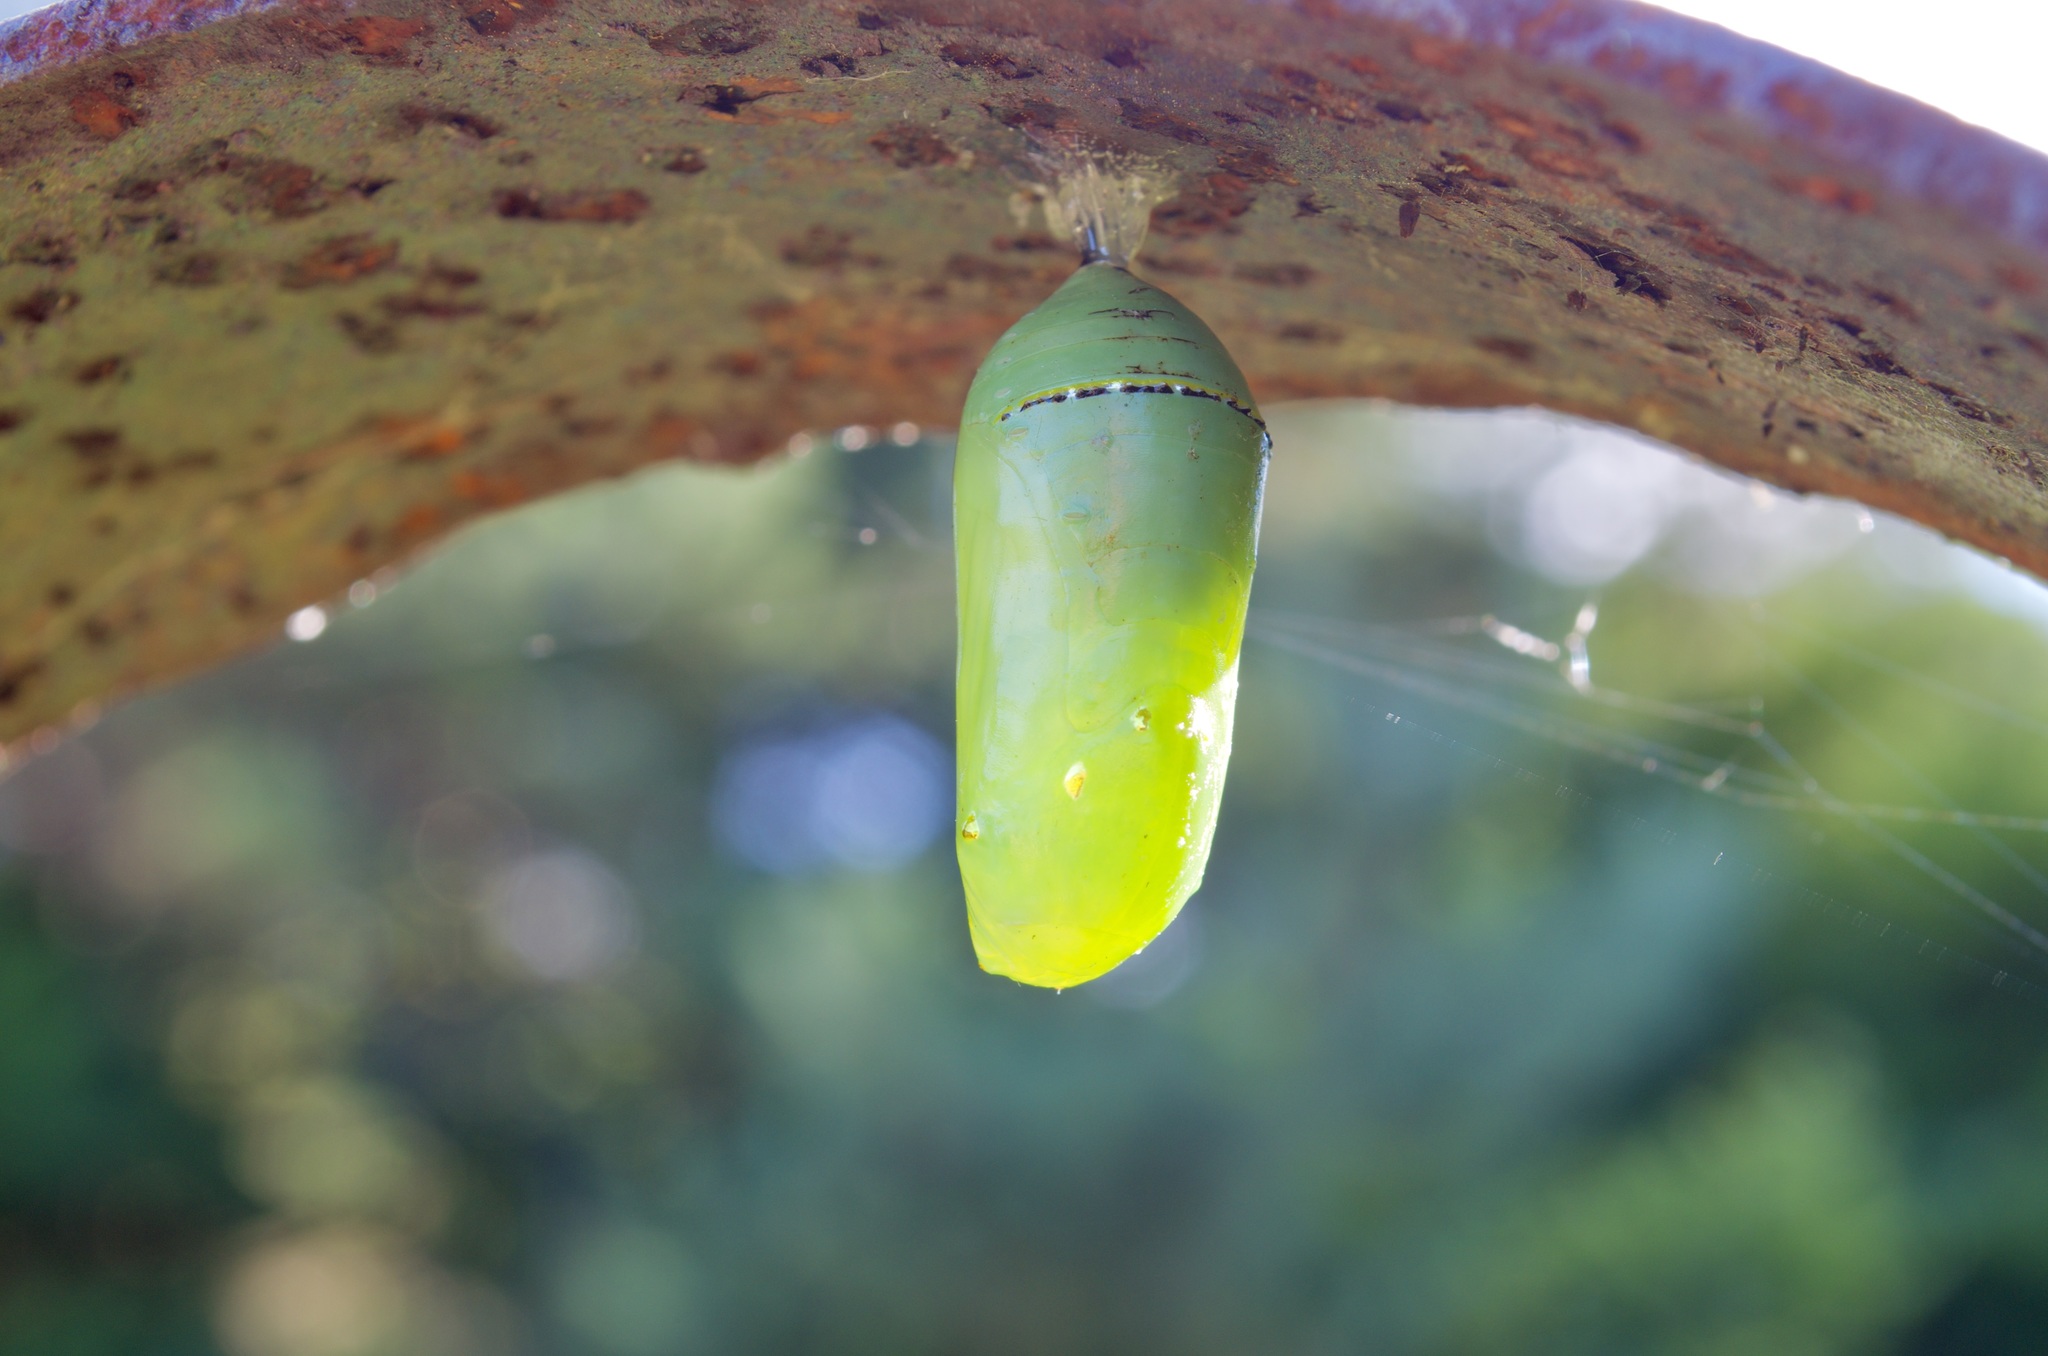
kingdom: Animalia
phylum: Arthropoda
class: Insecta
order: Lepidoptera
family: Nymphalidae
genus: Danaus
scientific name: Danaus plexippus
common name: Monarch
